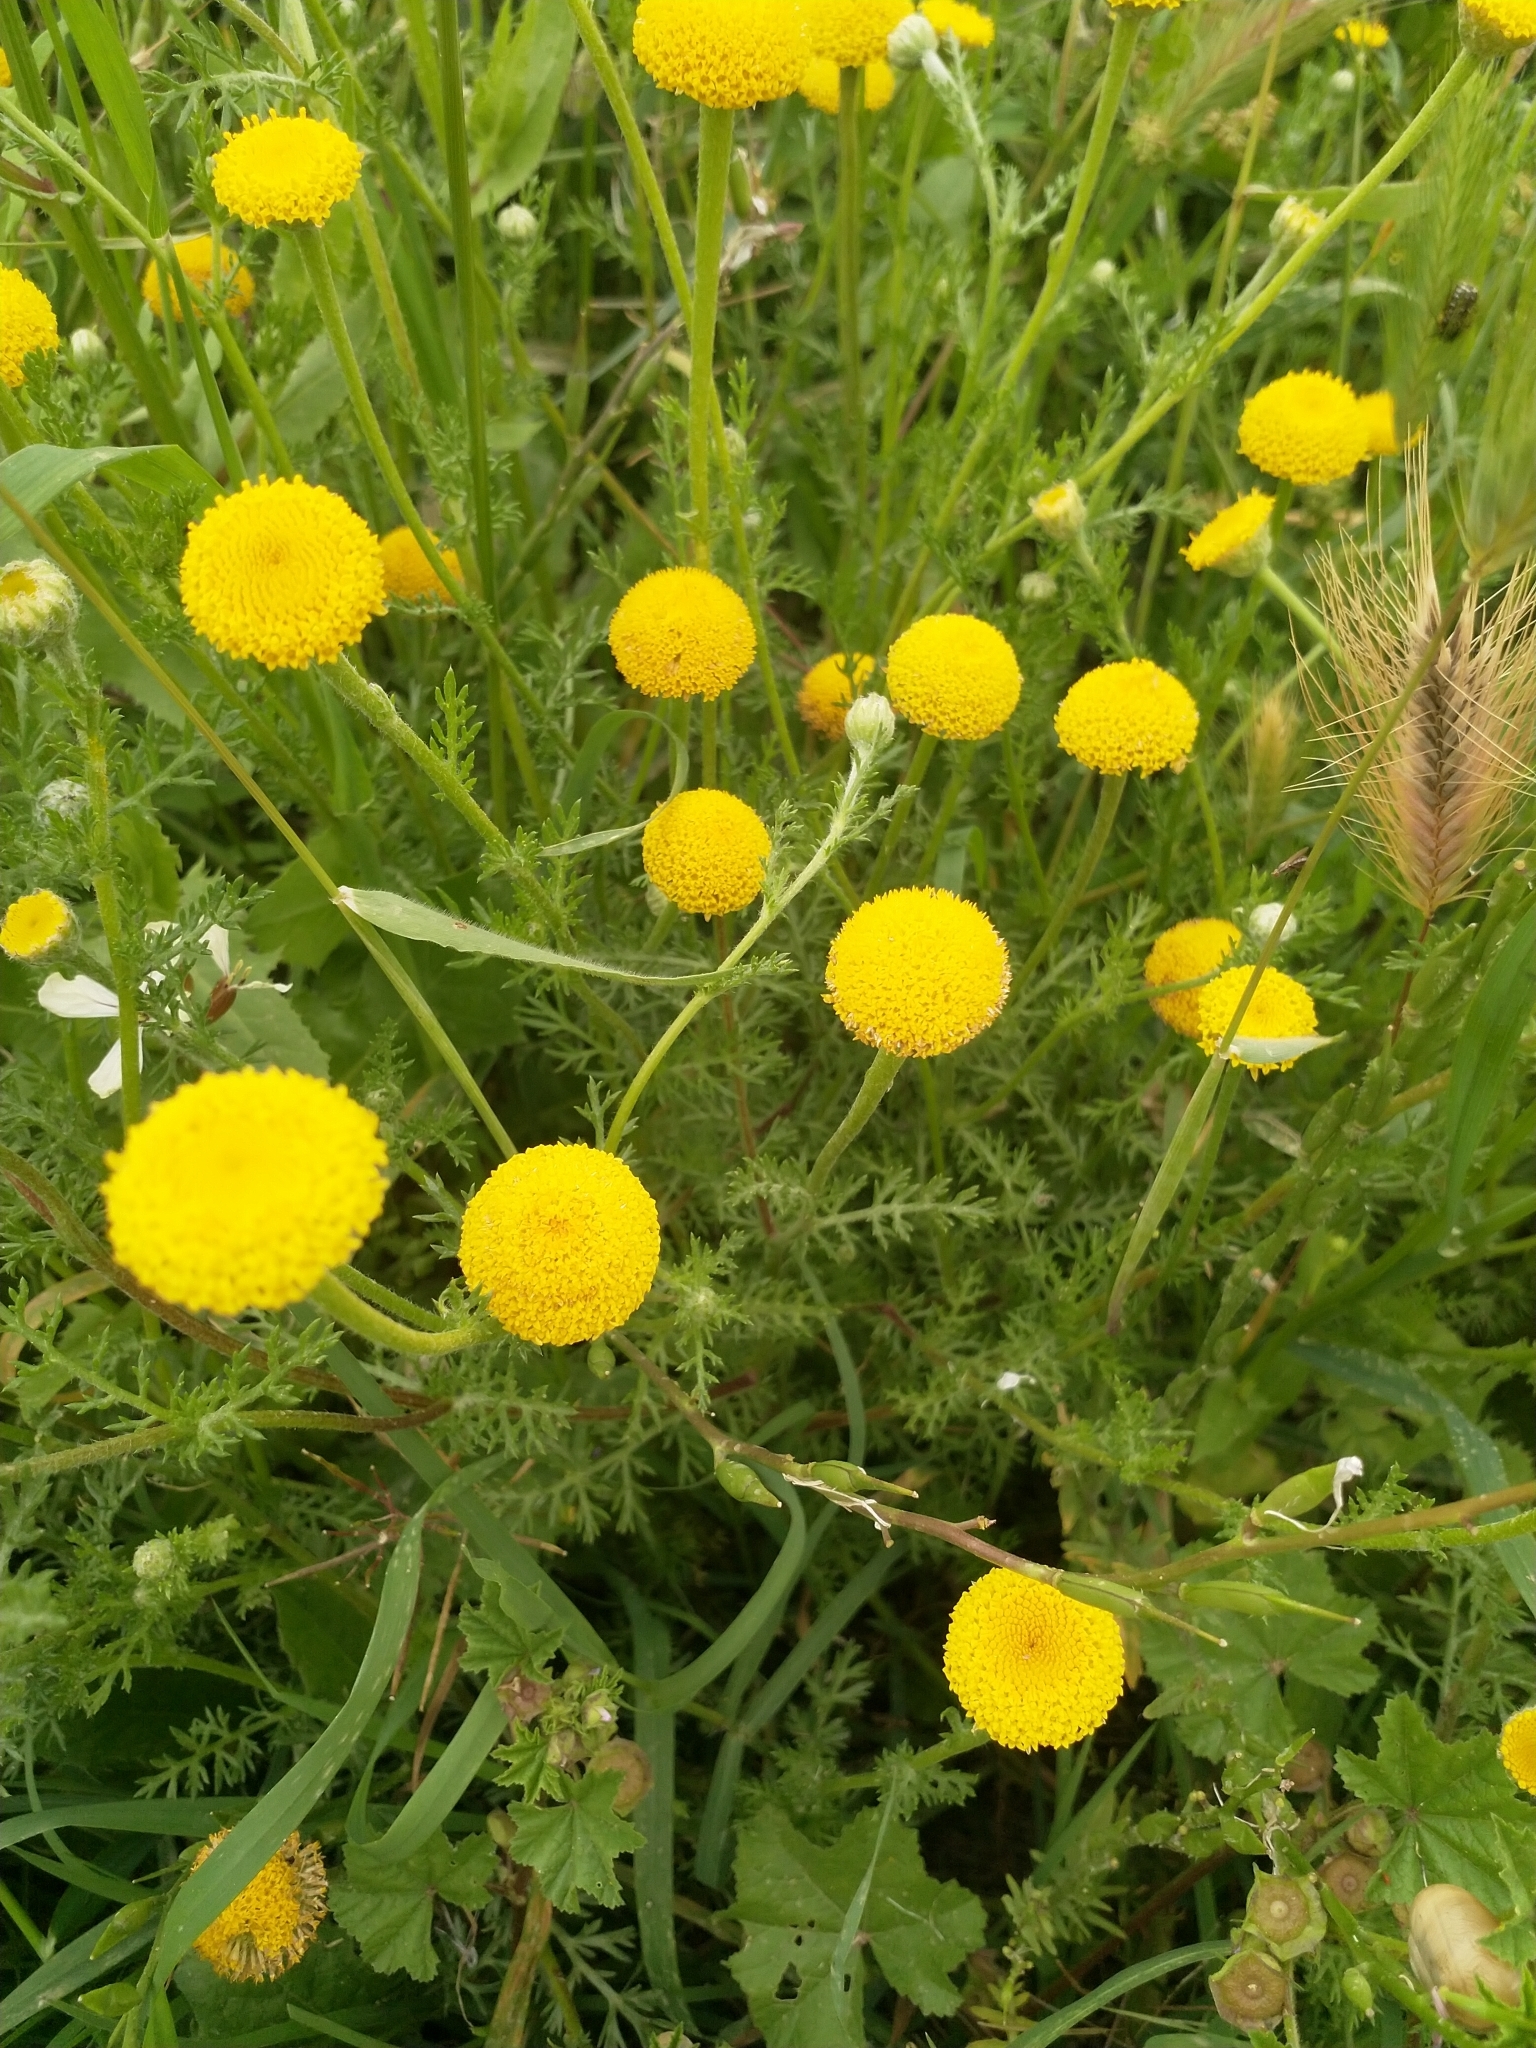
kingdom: Plantae
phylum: Tracheophyta
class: Magnoliopsida
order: Asterales
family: Asteraceae
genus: Anacyclus
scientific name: Anacyclus valentinus
